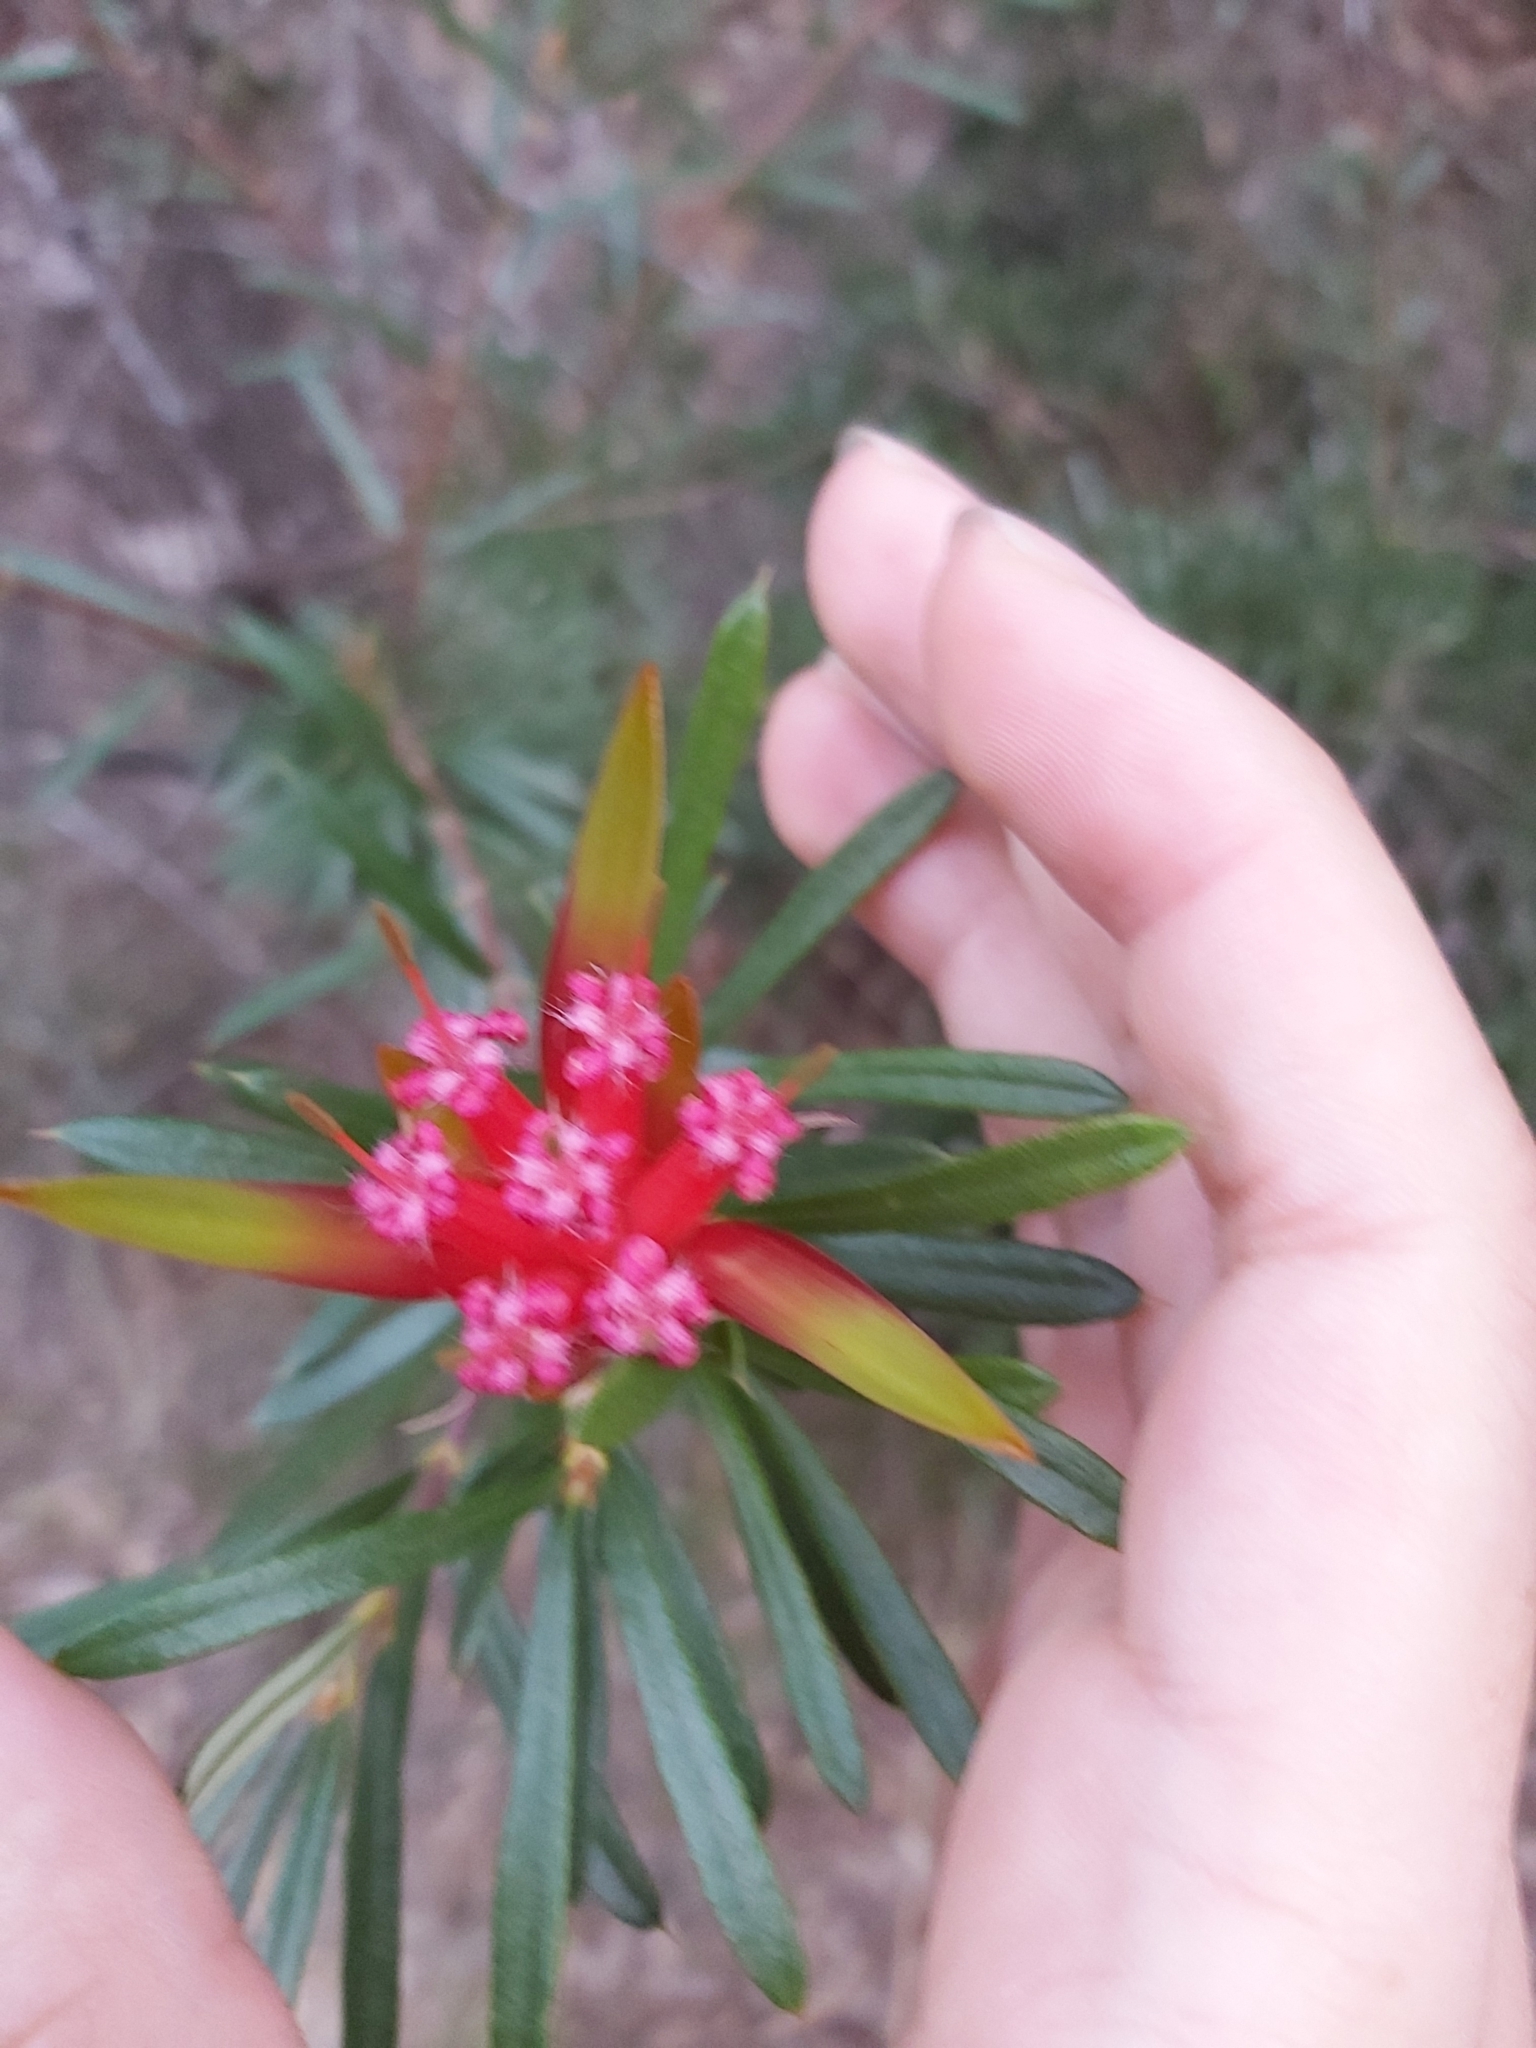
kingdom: Plantae
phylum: Tracheophyta
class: Magnoliopsida
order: Proteales
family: Proteaceae
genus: Lambertia
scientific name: Lambertia formosa
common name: Mountain-devil
